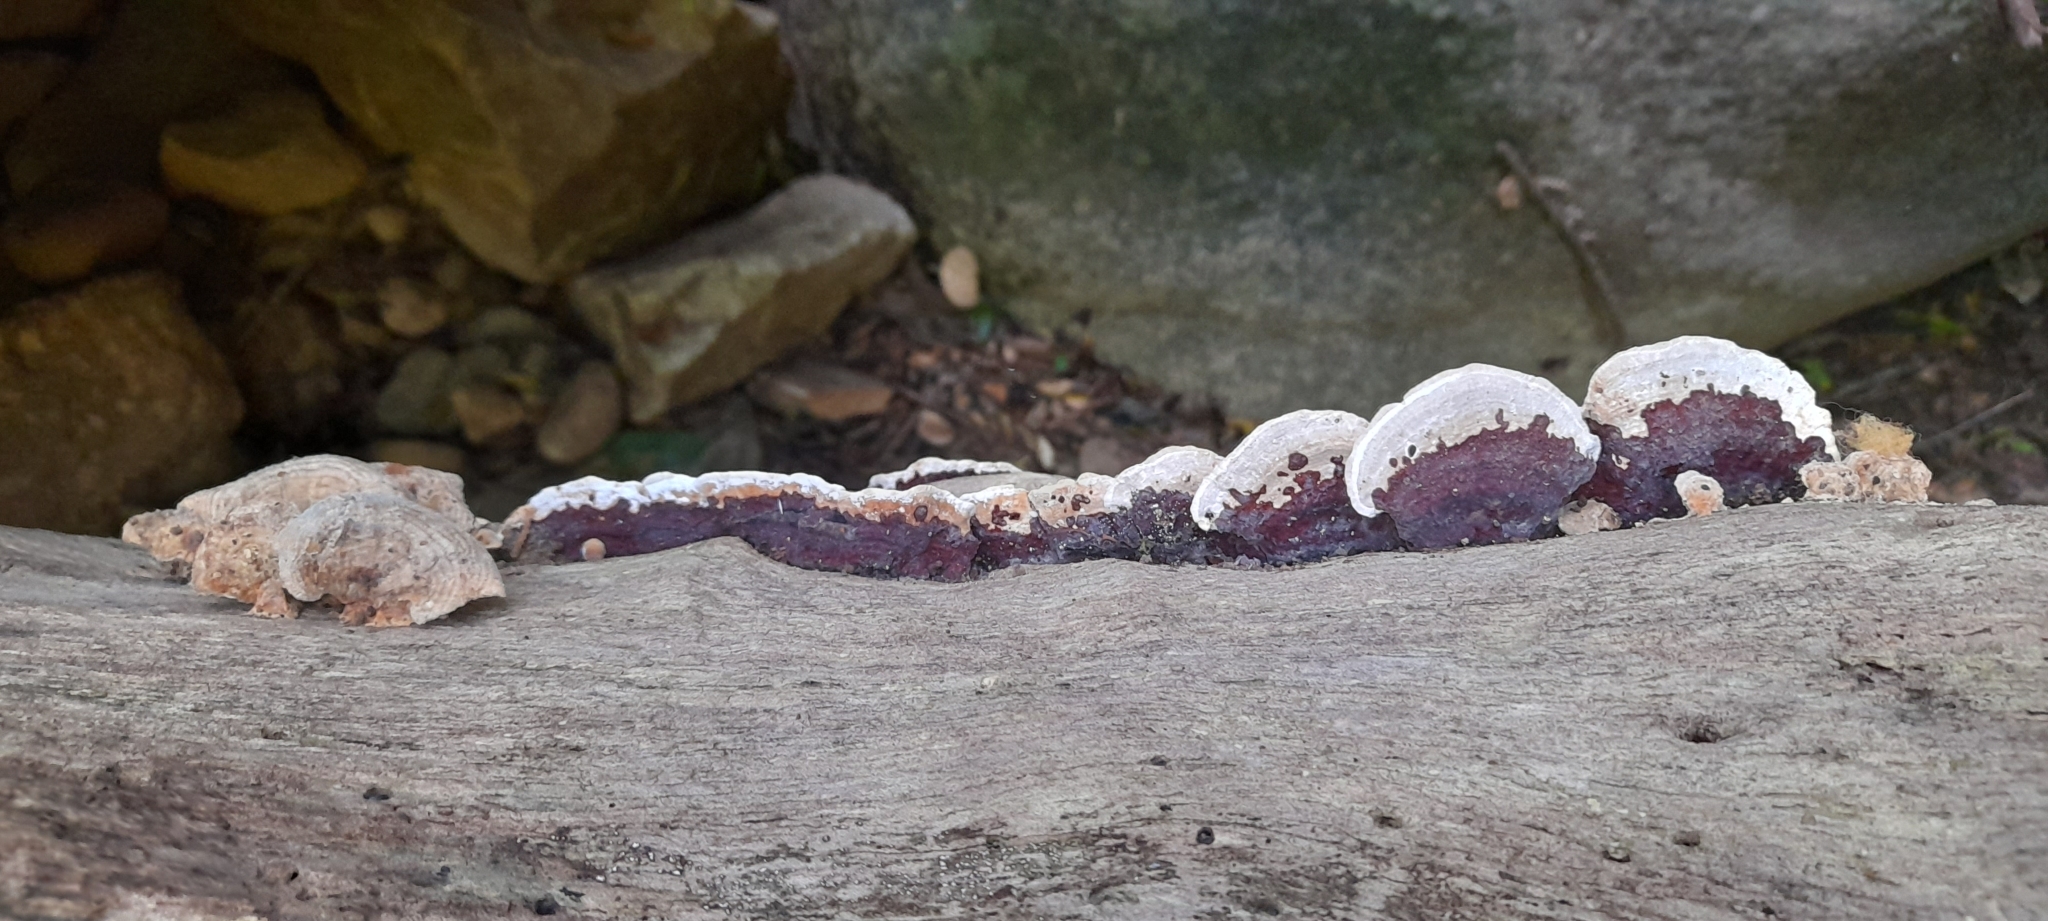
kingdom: Fungi
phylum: Basidiomycota
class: Agaricomycetes
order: Polyporales
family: Polyporaceae
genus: Earliella
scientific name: Earliella scabrosa
